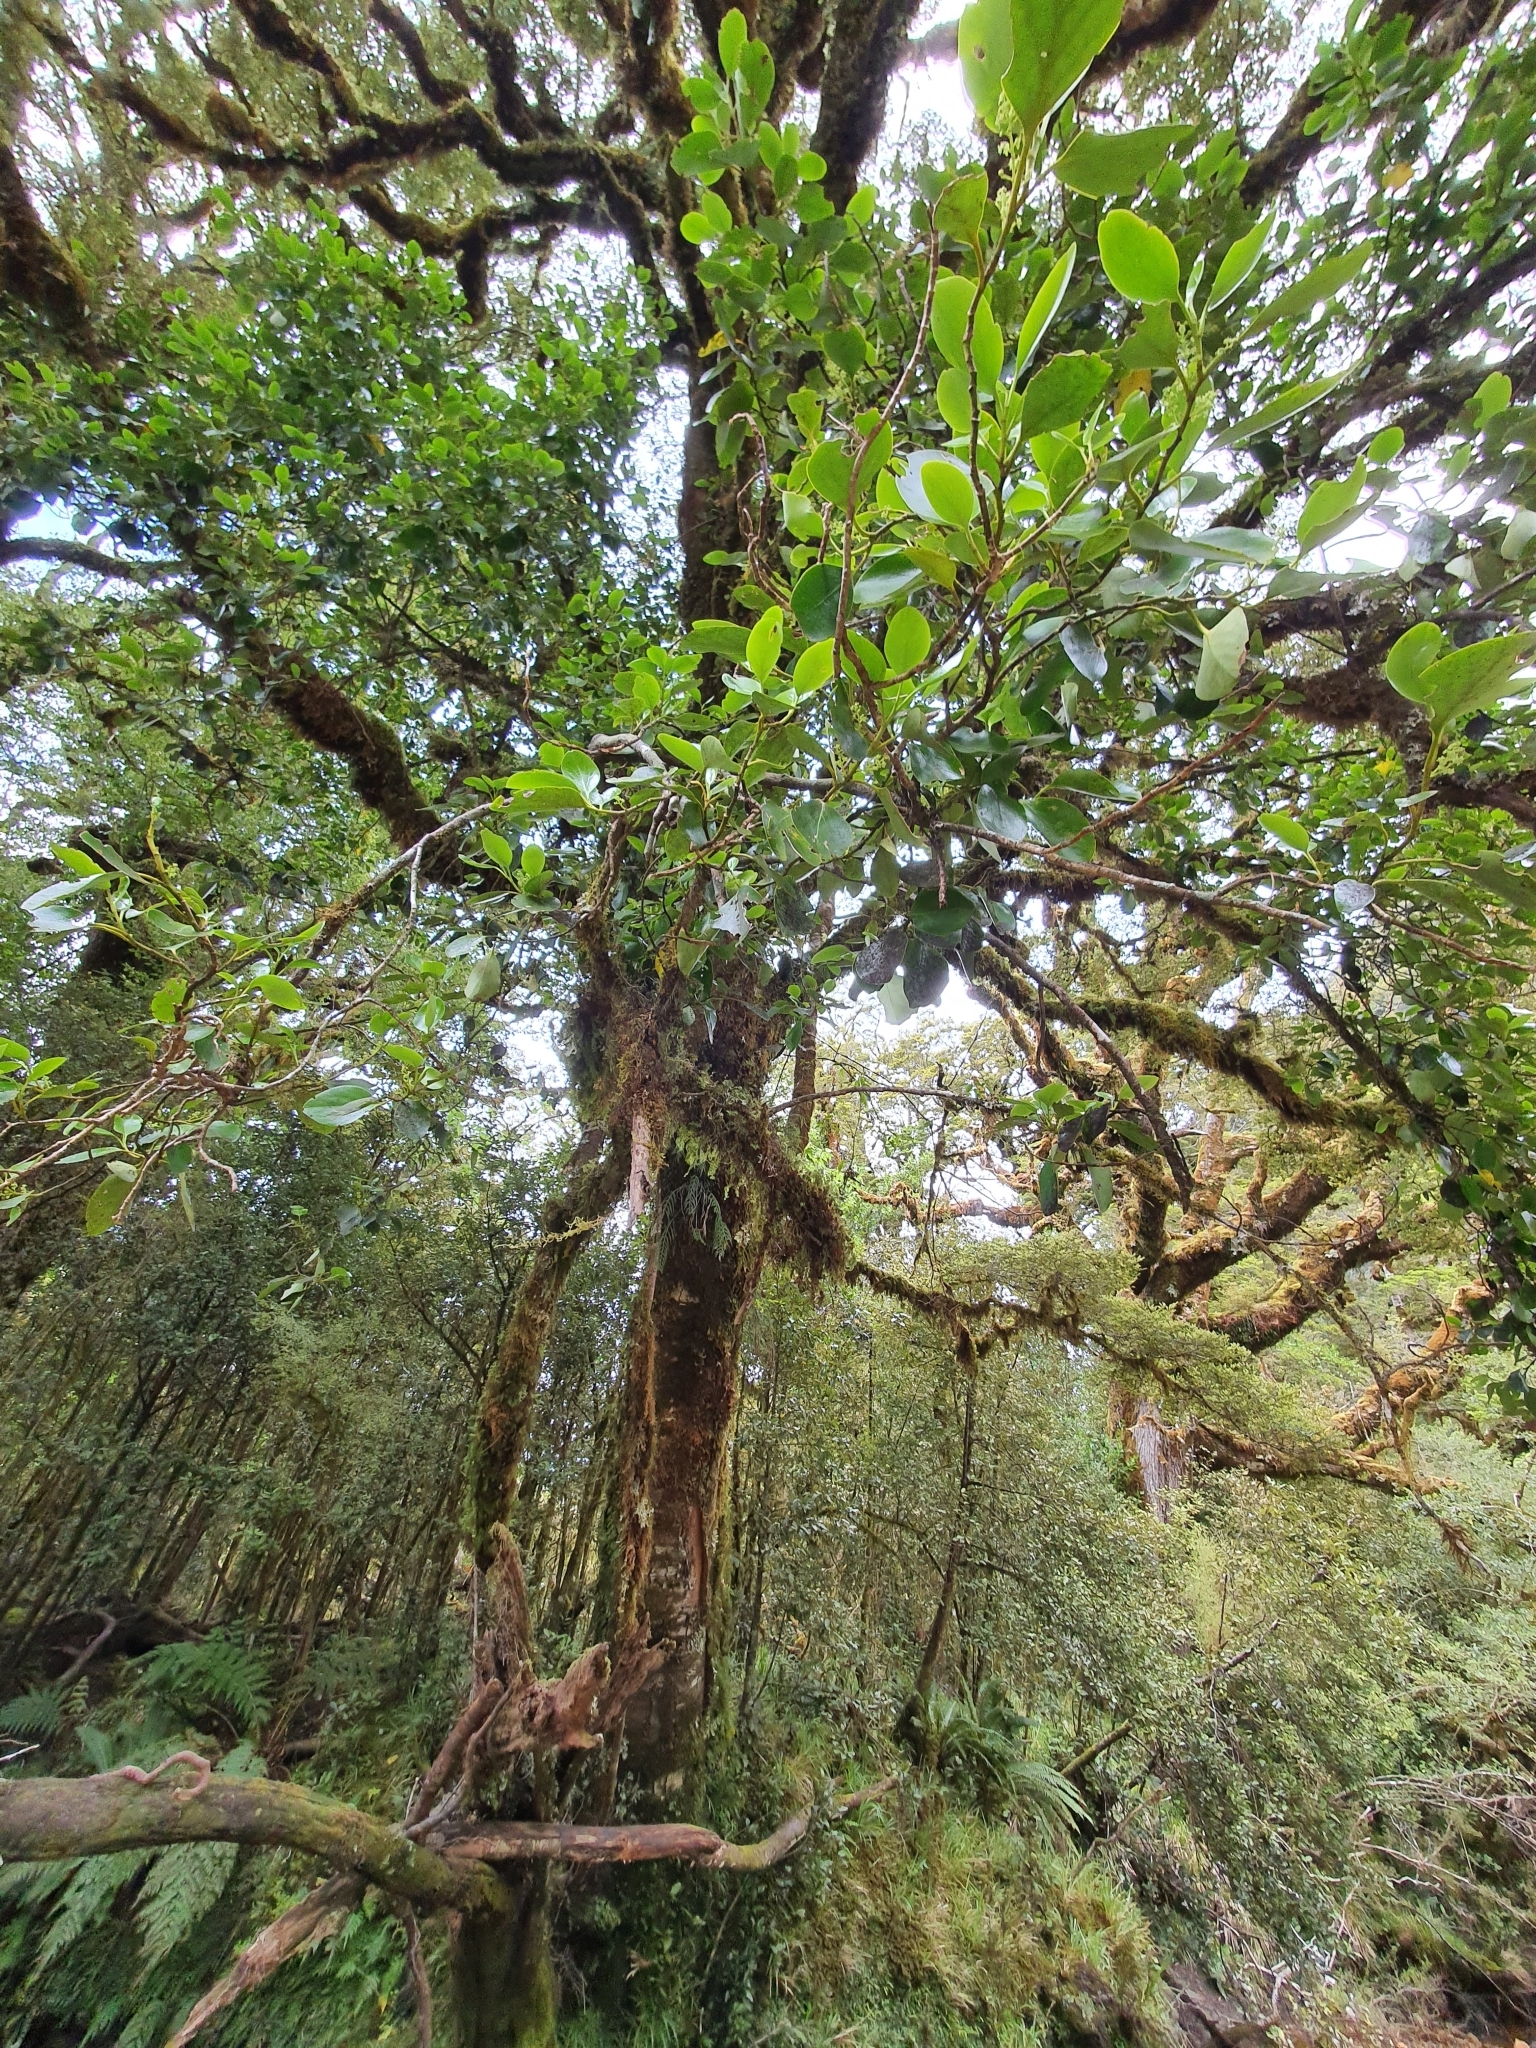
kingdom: Plantae
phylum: Tracheophyta
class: Magnoliopsida
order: Apiales
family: Griseliniaceae
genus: Griselinia
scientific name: Griselinia littoralis
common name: New zealand broadleaf
